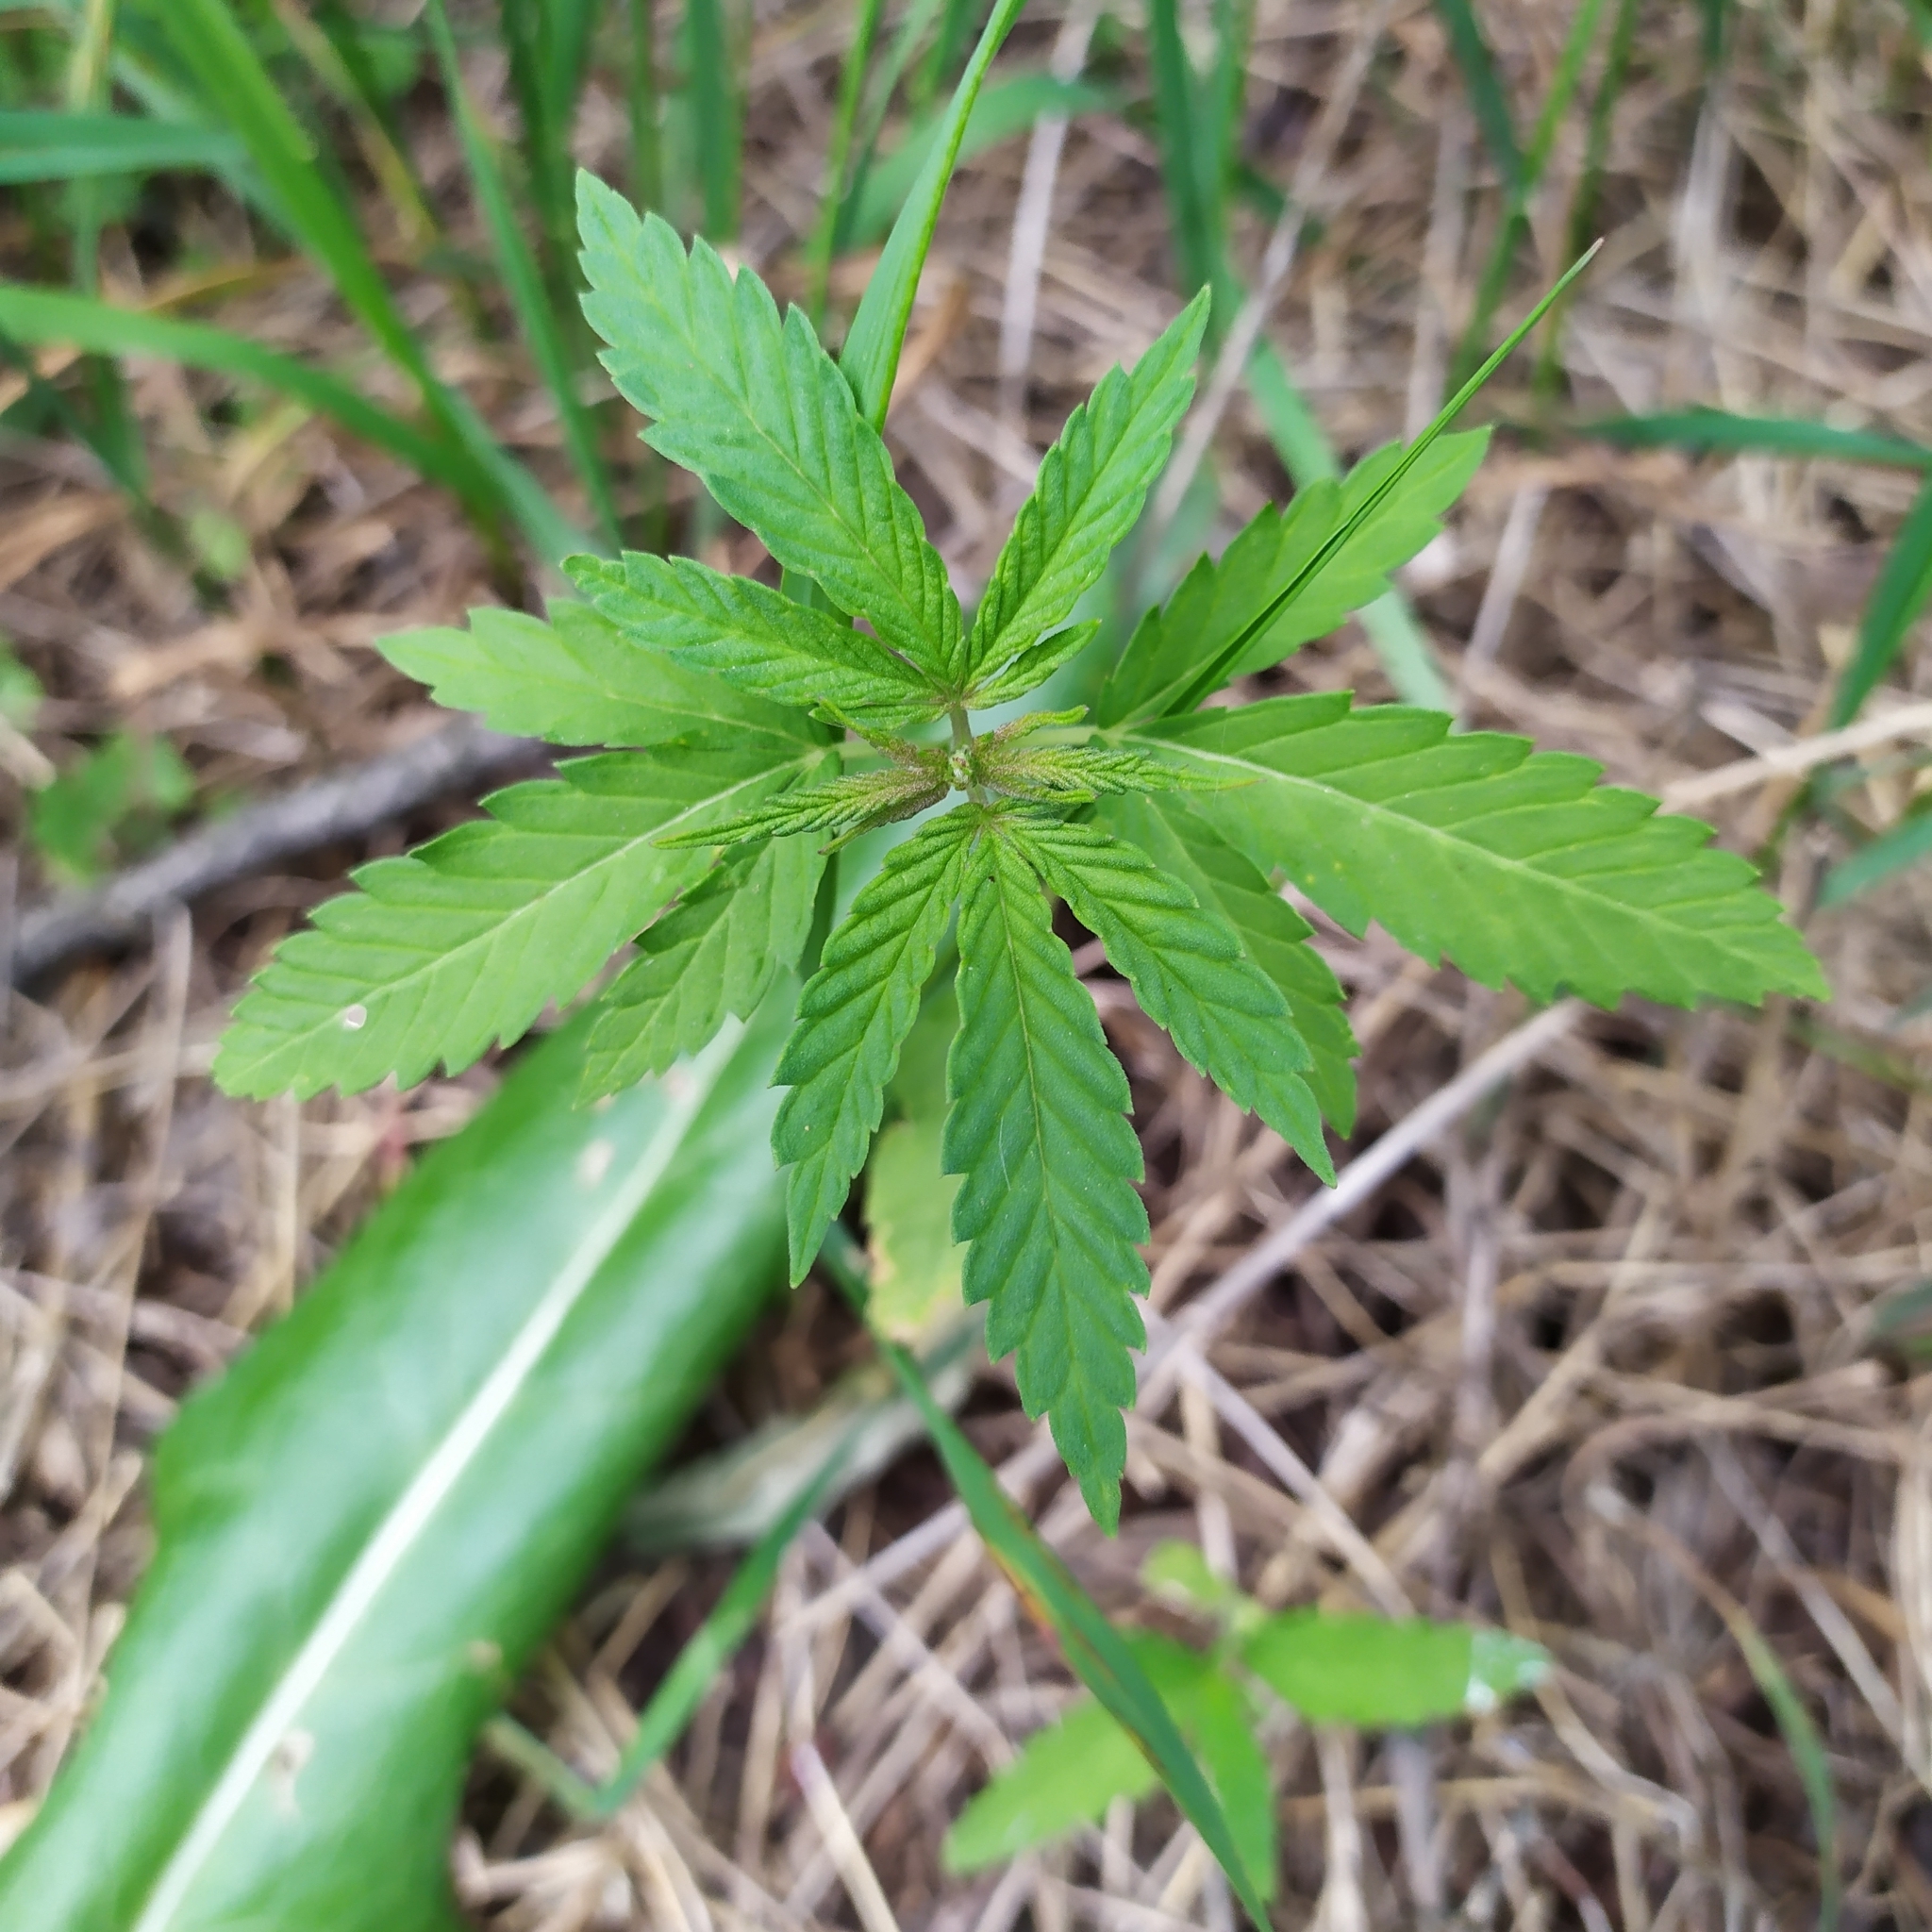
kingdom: Plantae
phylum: Tracheophyta
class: Magnoliopsida
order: Rosales
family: Cannabaceae
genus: Cannabis
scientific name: Cannabis sativa
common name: Hemp
